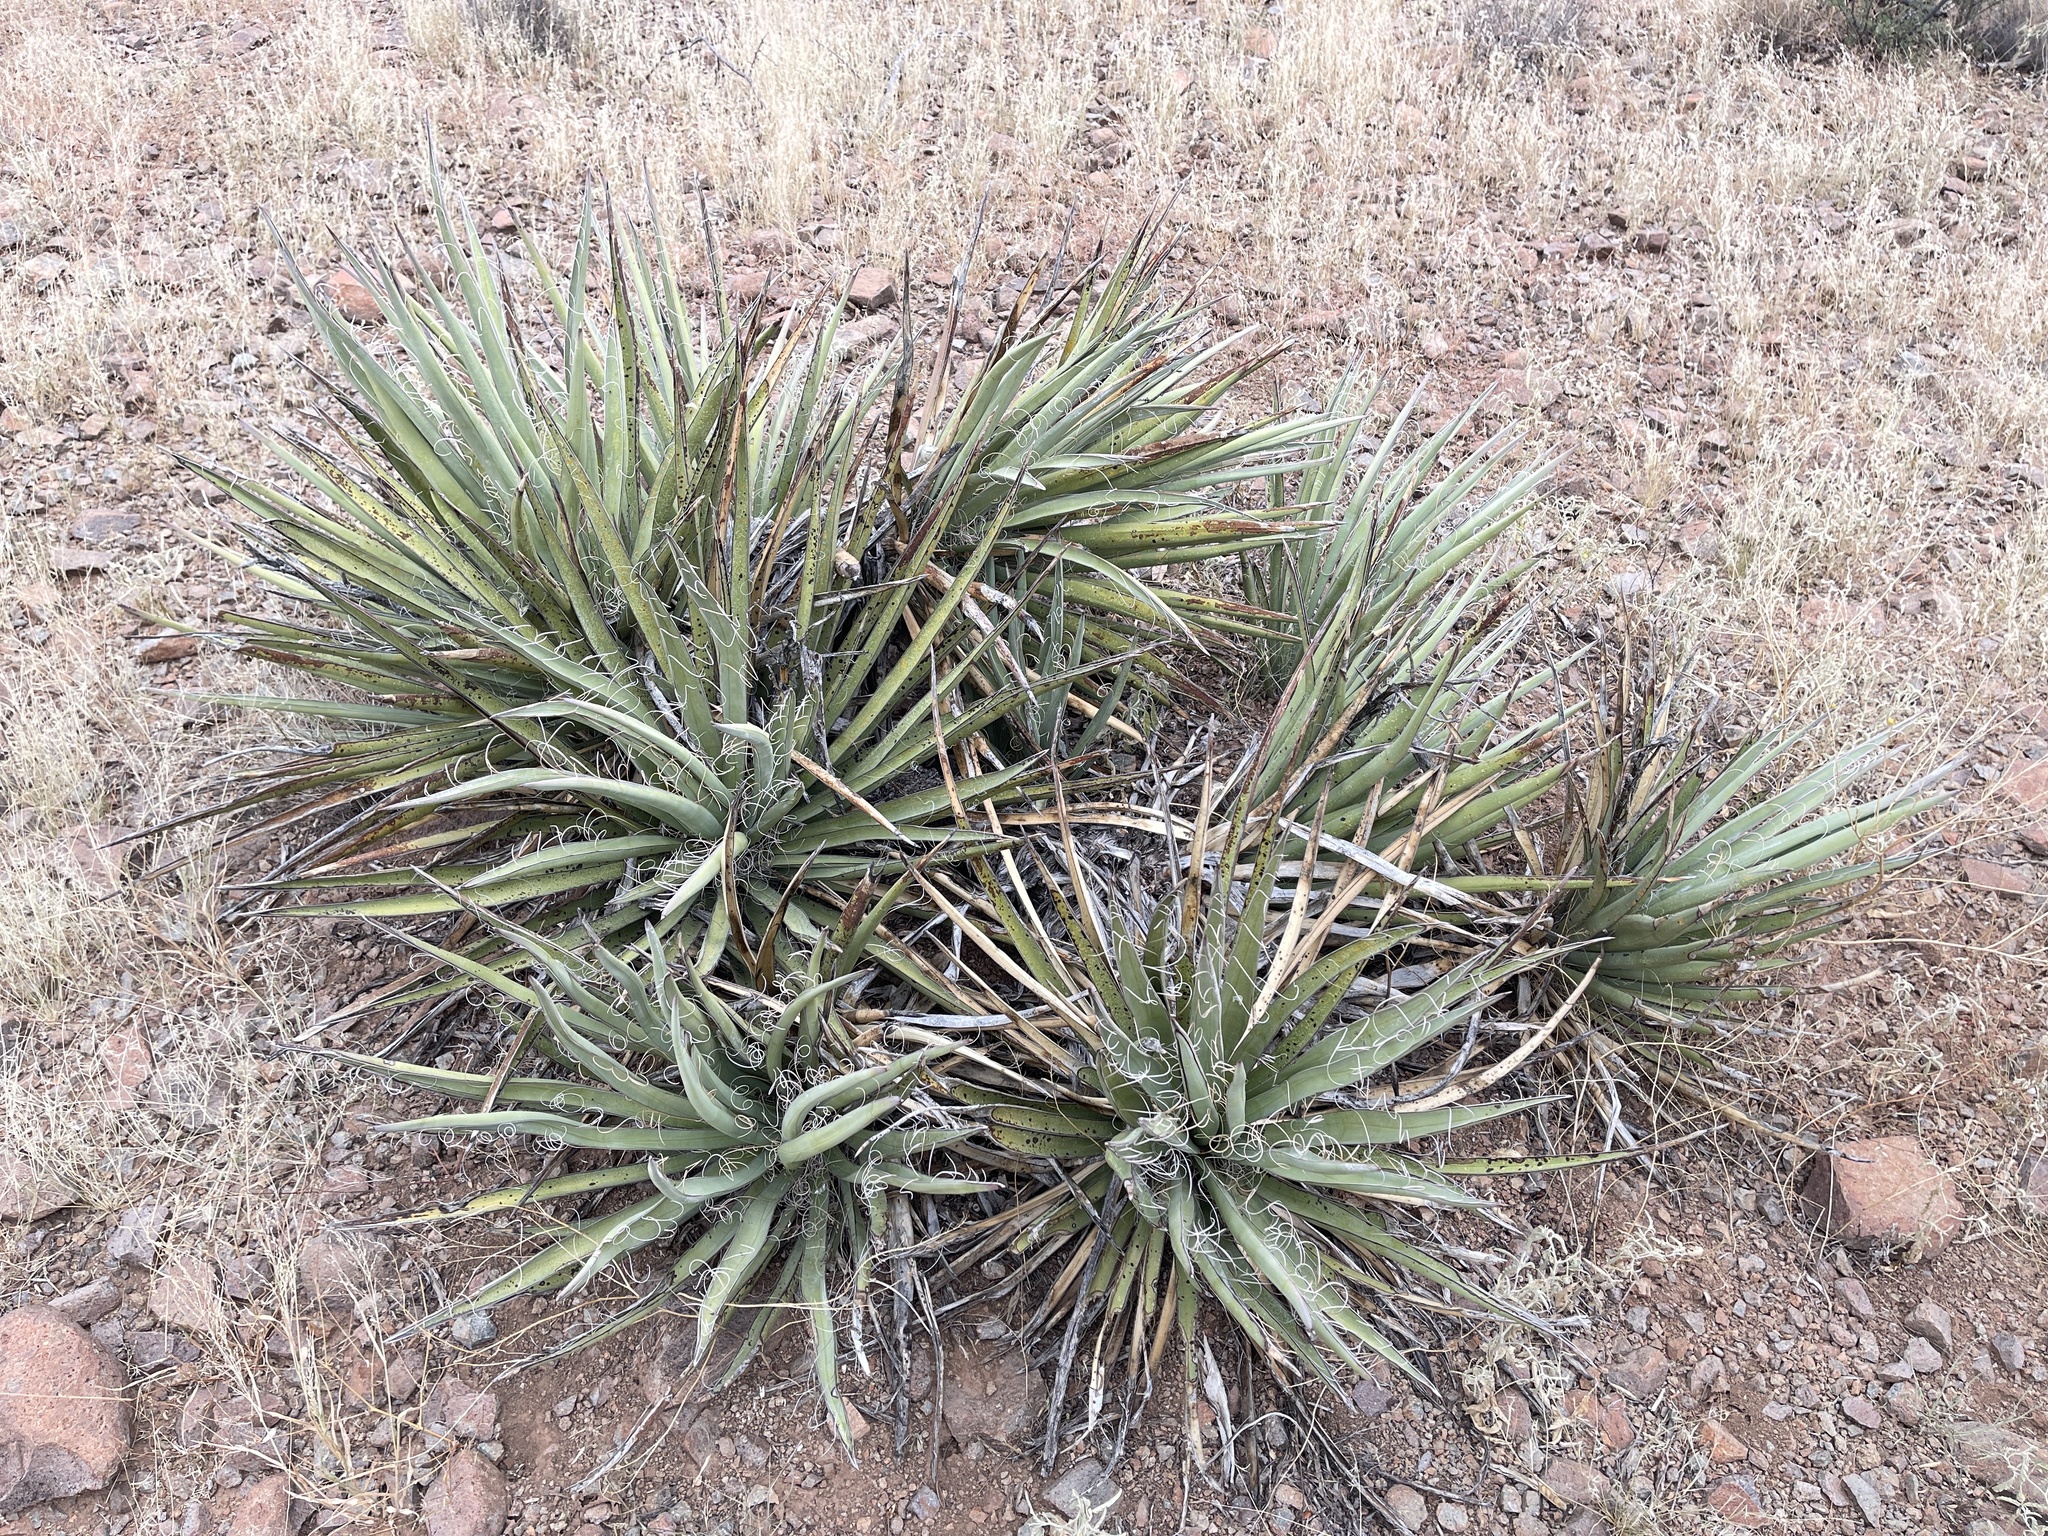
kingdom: Plantae
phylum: Tracheophyta
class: Liliopsida
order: Asparagales
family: Asparagaceae
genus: Yucca
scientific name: Yucca baccata
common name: Banana yucca
